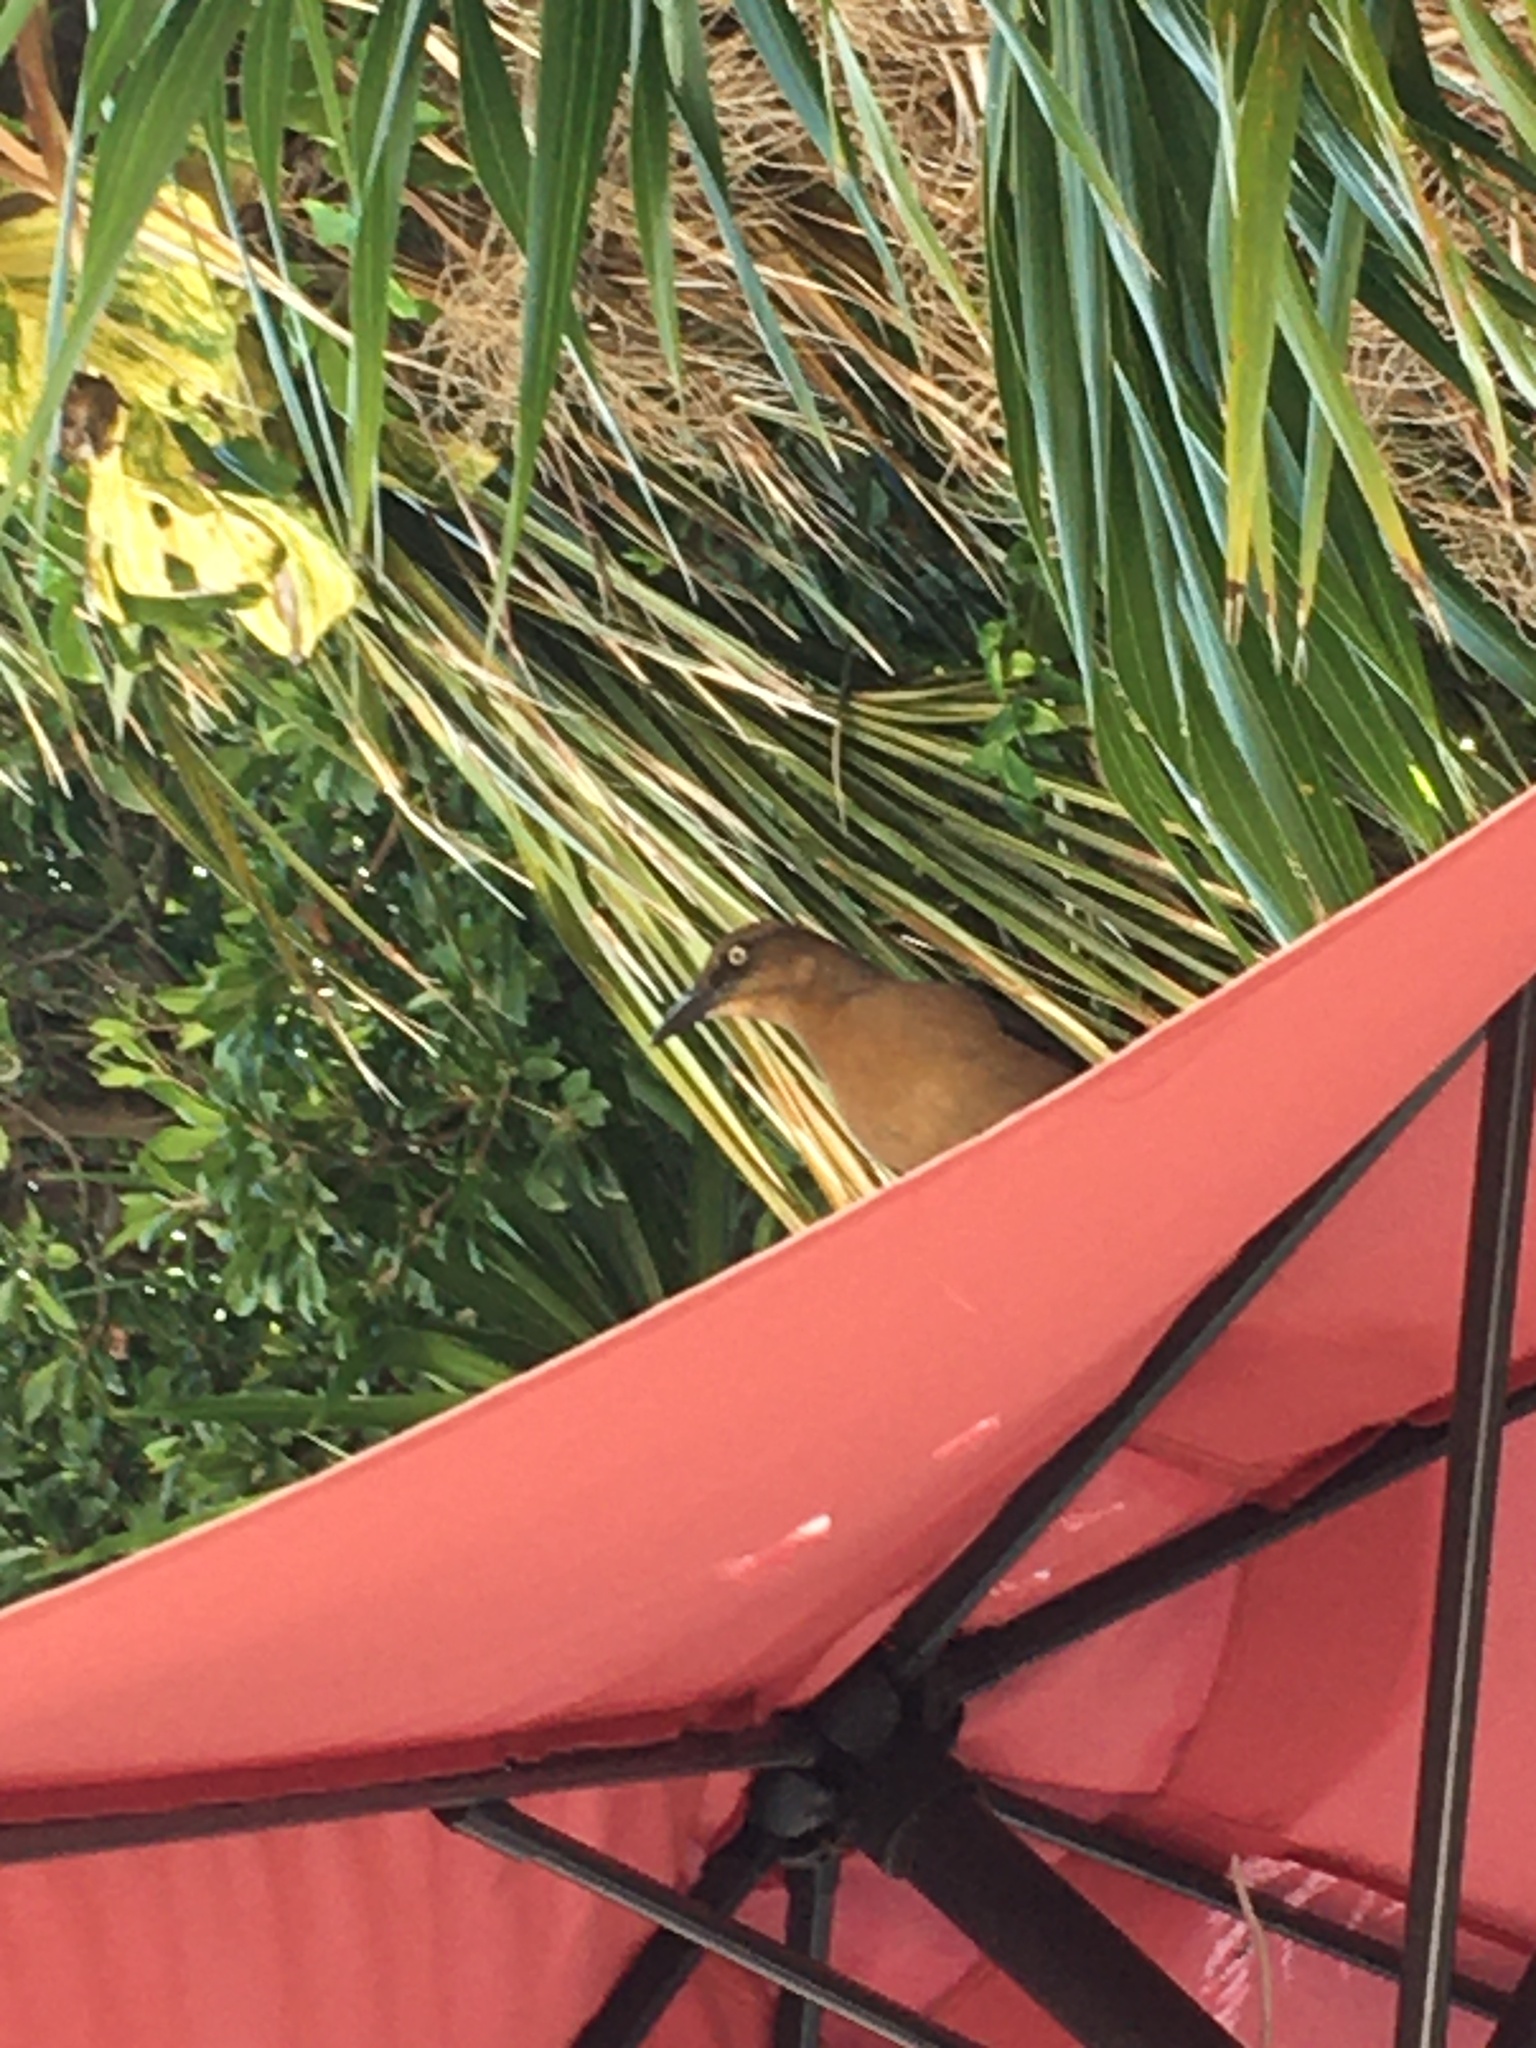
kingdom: Animalia
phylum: Chordata
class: Aves
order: Passeriformes
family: Icteridae
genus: Quiscalus
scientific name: Quiscalus mexicanus
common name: Great-tailed grackle
